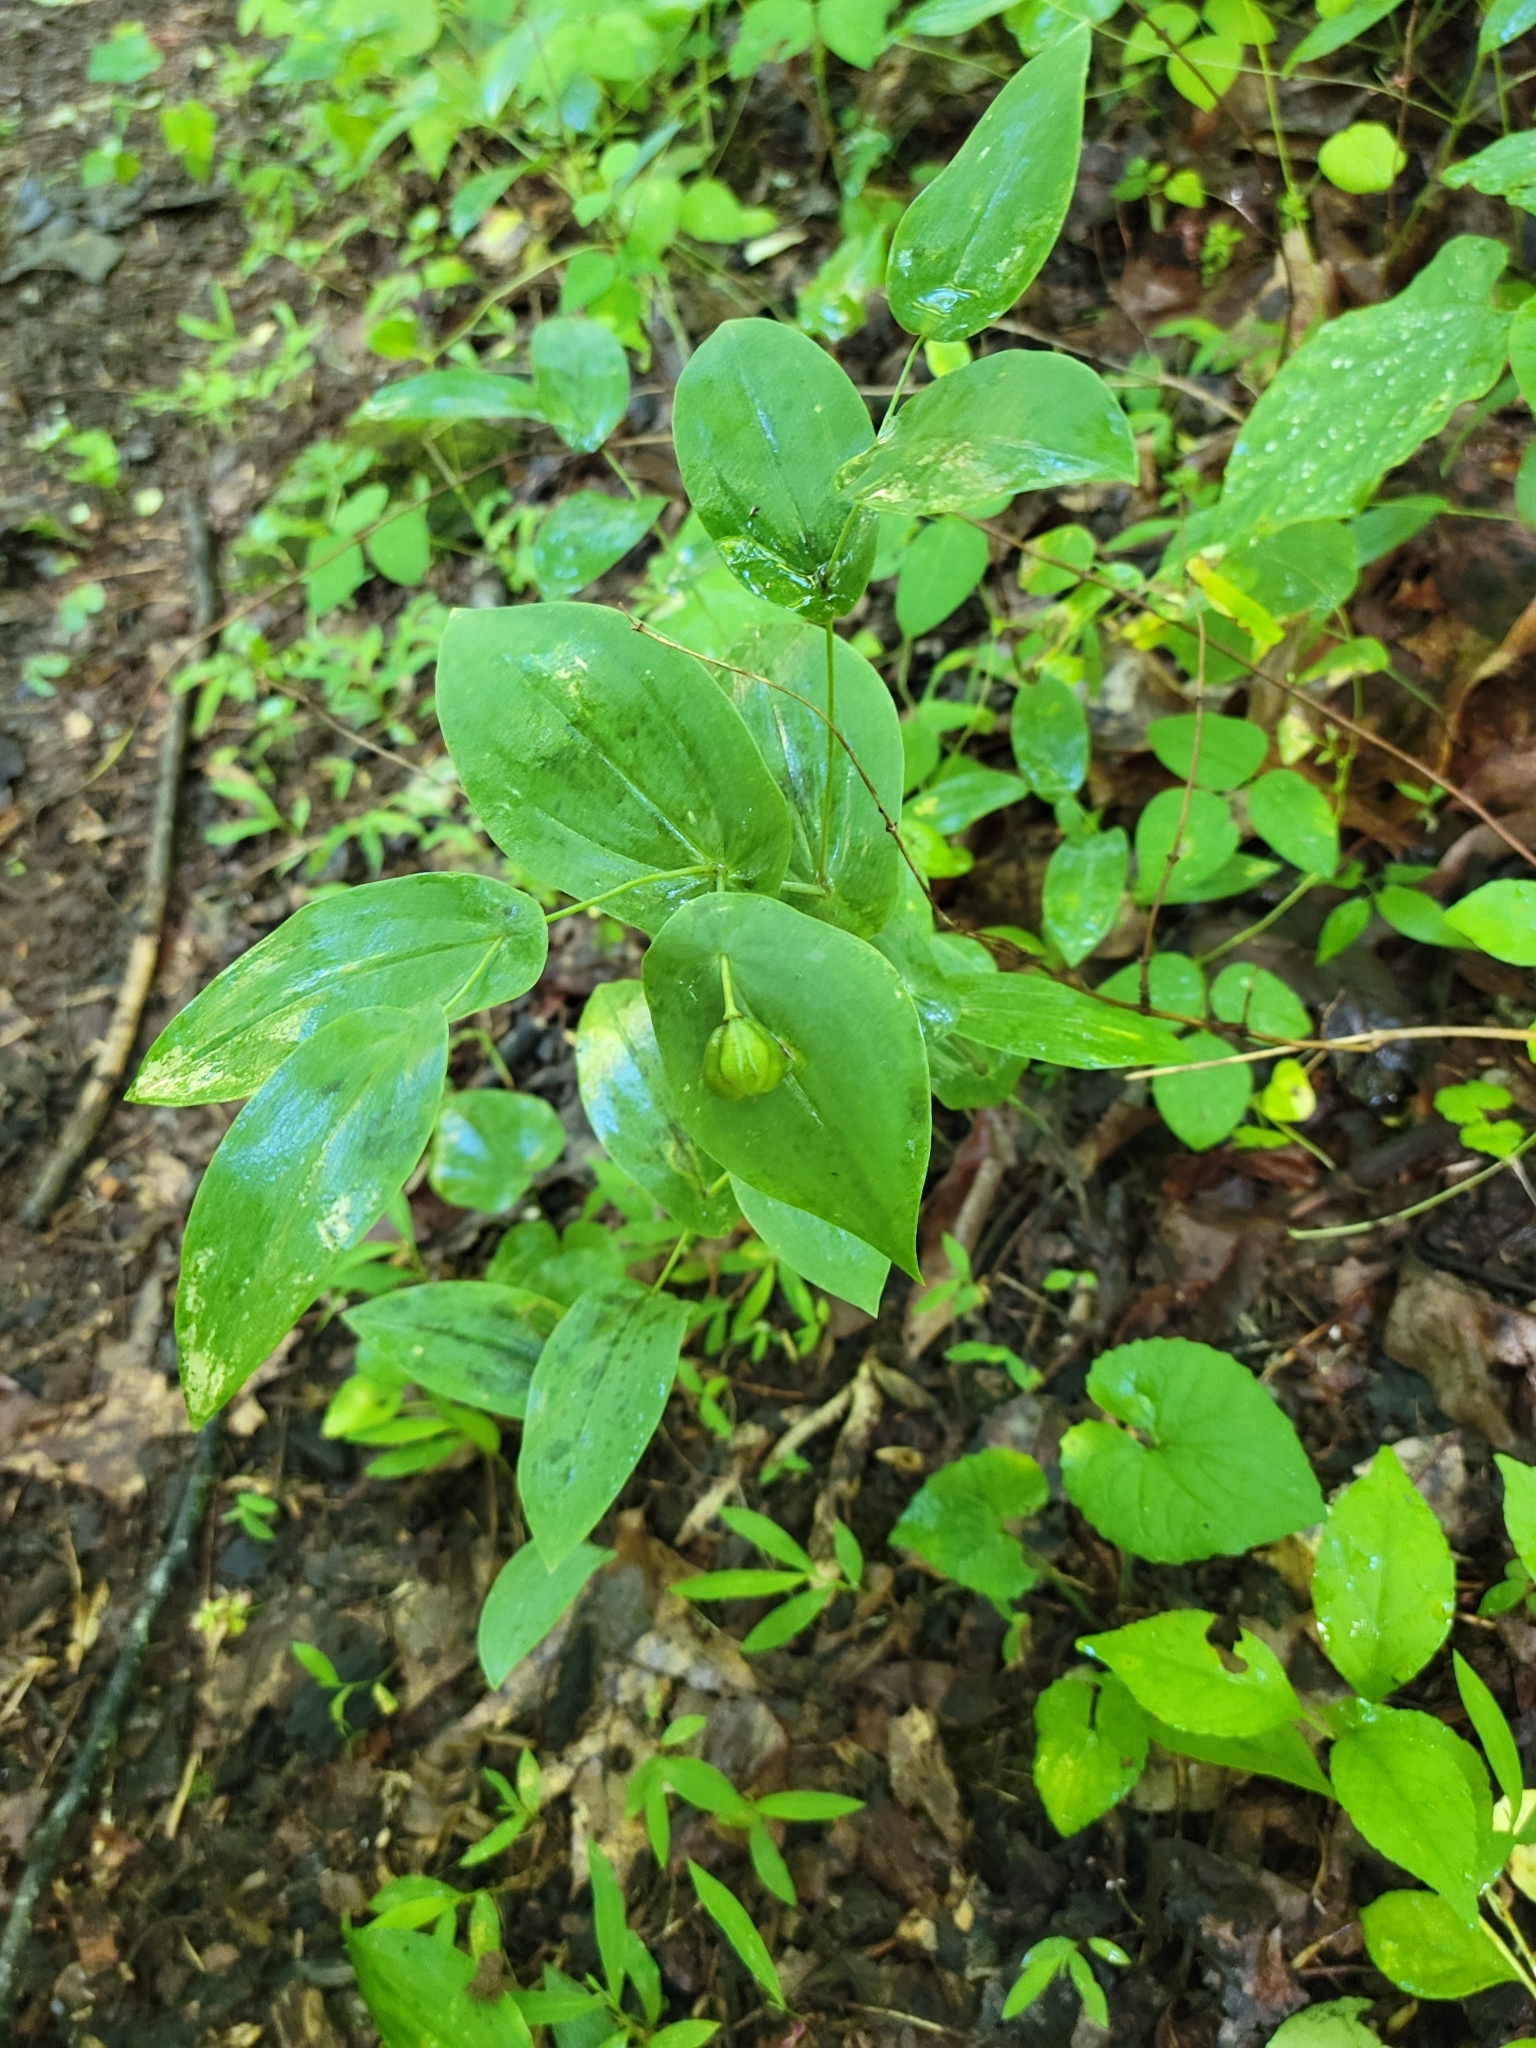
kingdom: Plantae
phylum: Tracheophyta
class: Liliopsida
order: Liliales
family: Colchicaceae
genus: Uvularia
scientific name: Uvularia perfoliata
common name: Perfoliate bellwort
